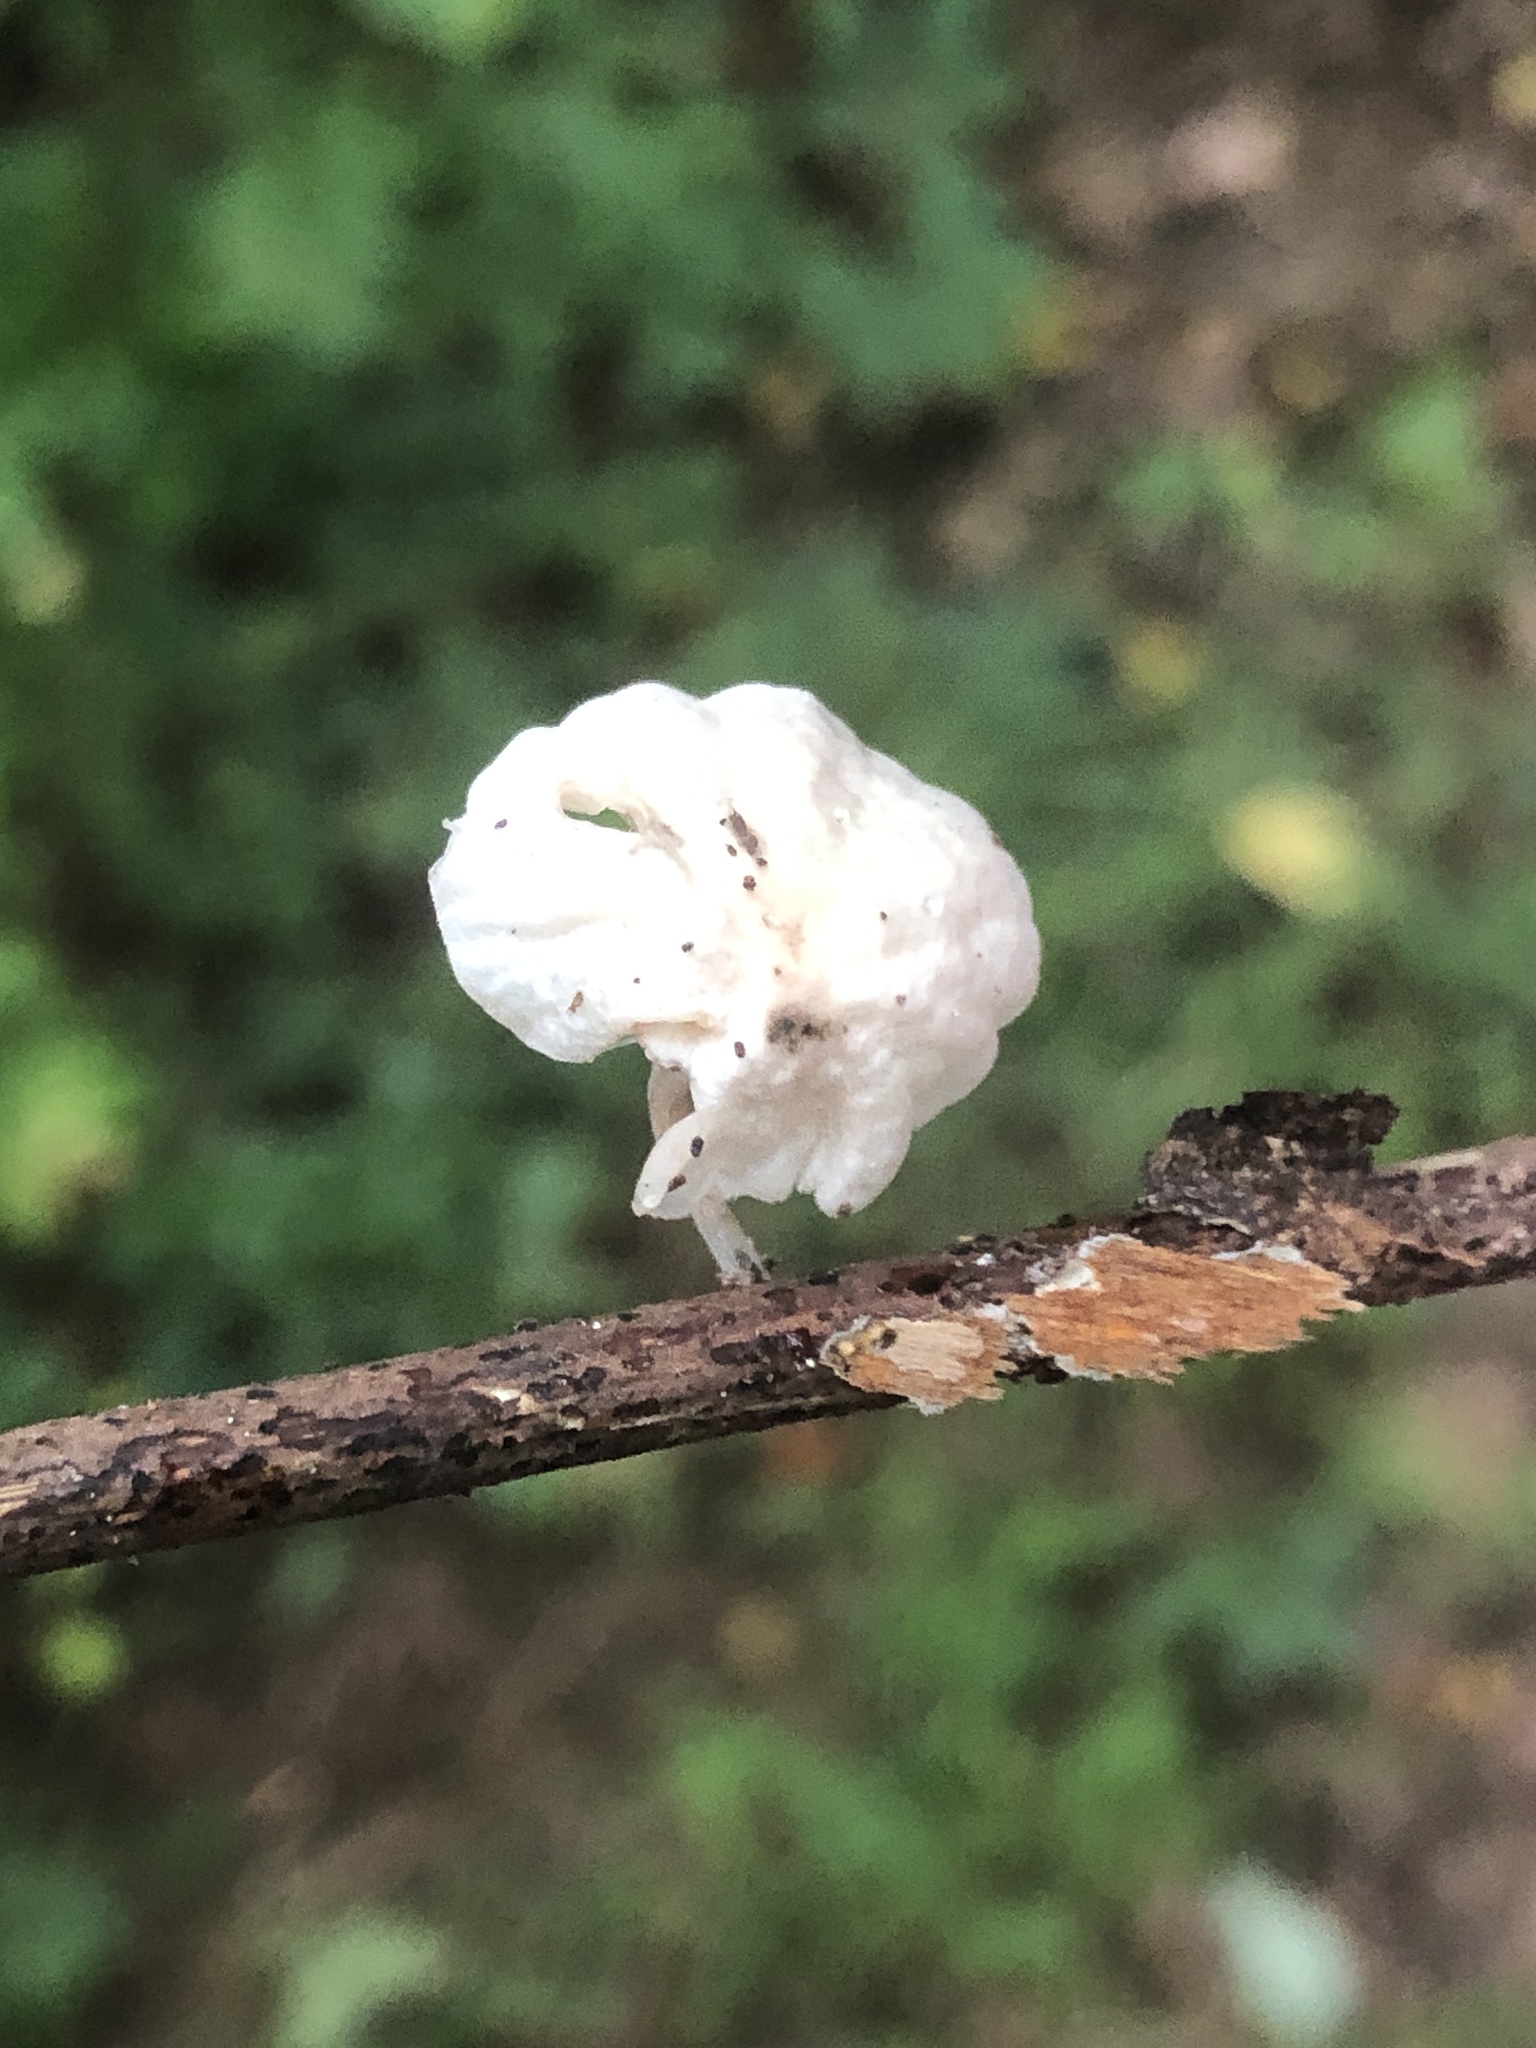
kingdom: Fungi
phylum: Basidiomycota
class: Agaricomycetes
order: Agaricales
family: Omphalotaceae
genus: Marasmiellus
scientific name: Marasmiellus candidus
